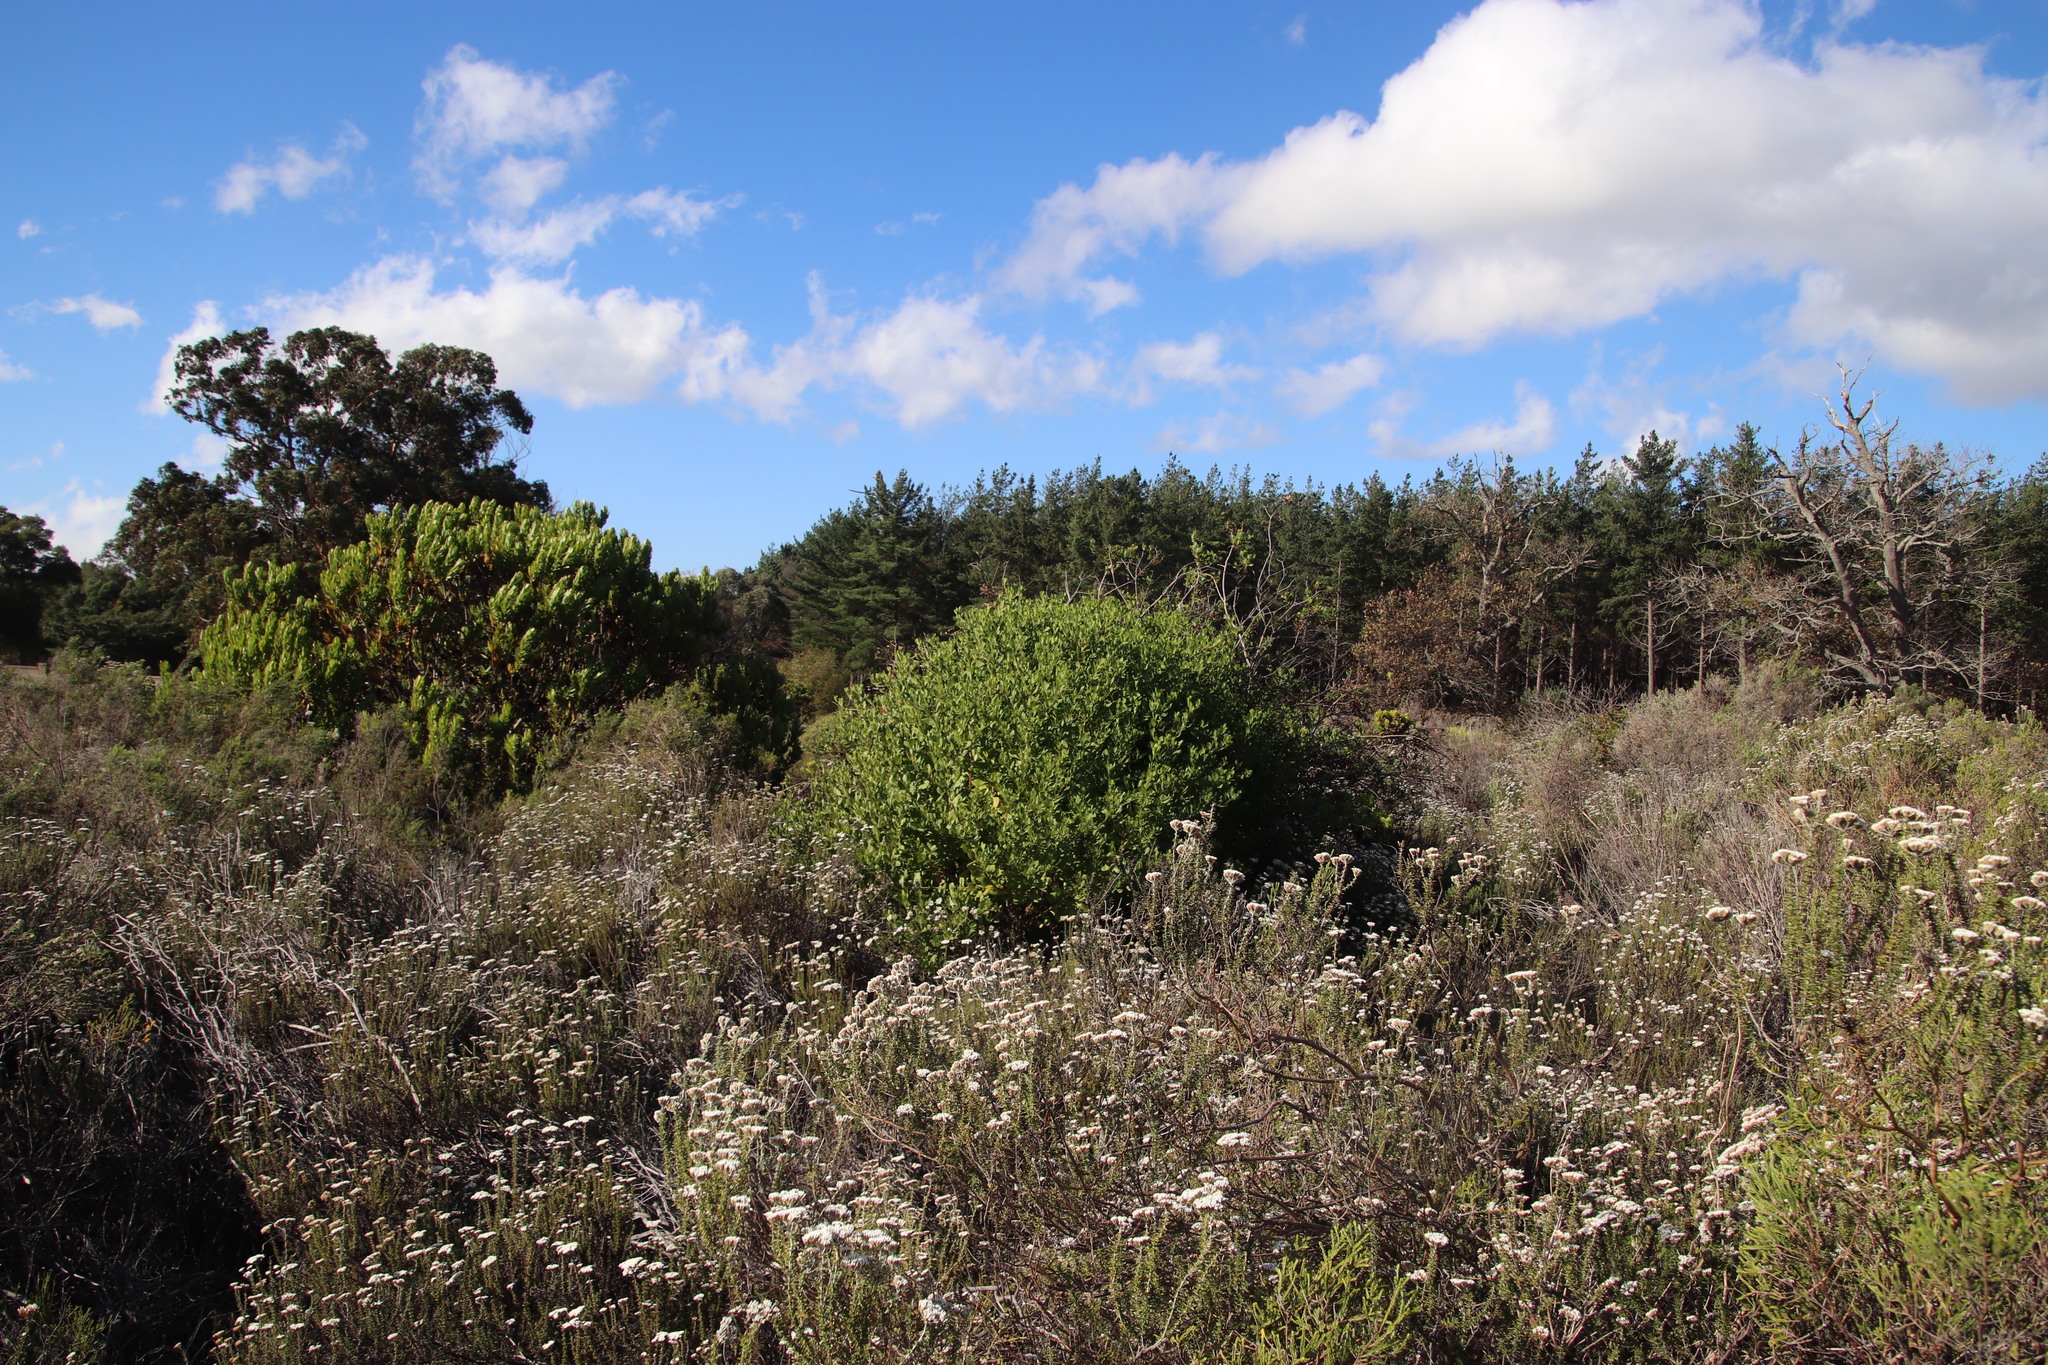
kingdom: Plantae
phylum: Tracheophyta
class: Magnoliopsida
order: Asterales
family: Asteraceae
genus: Osteospermum
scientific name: Osteospermum moniliferum
